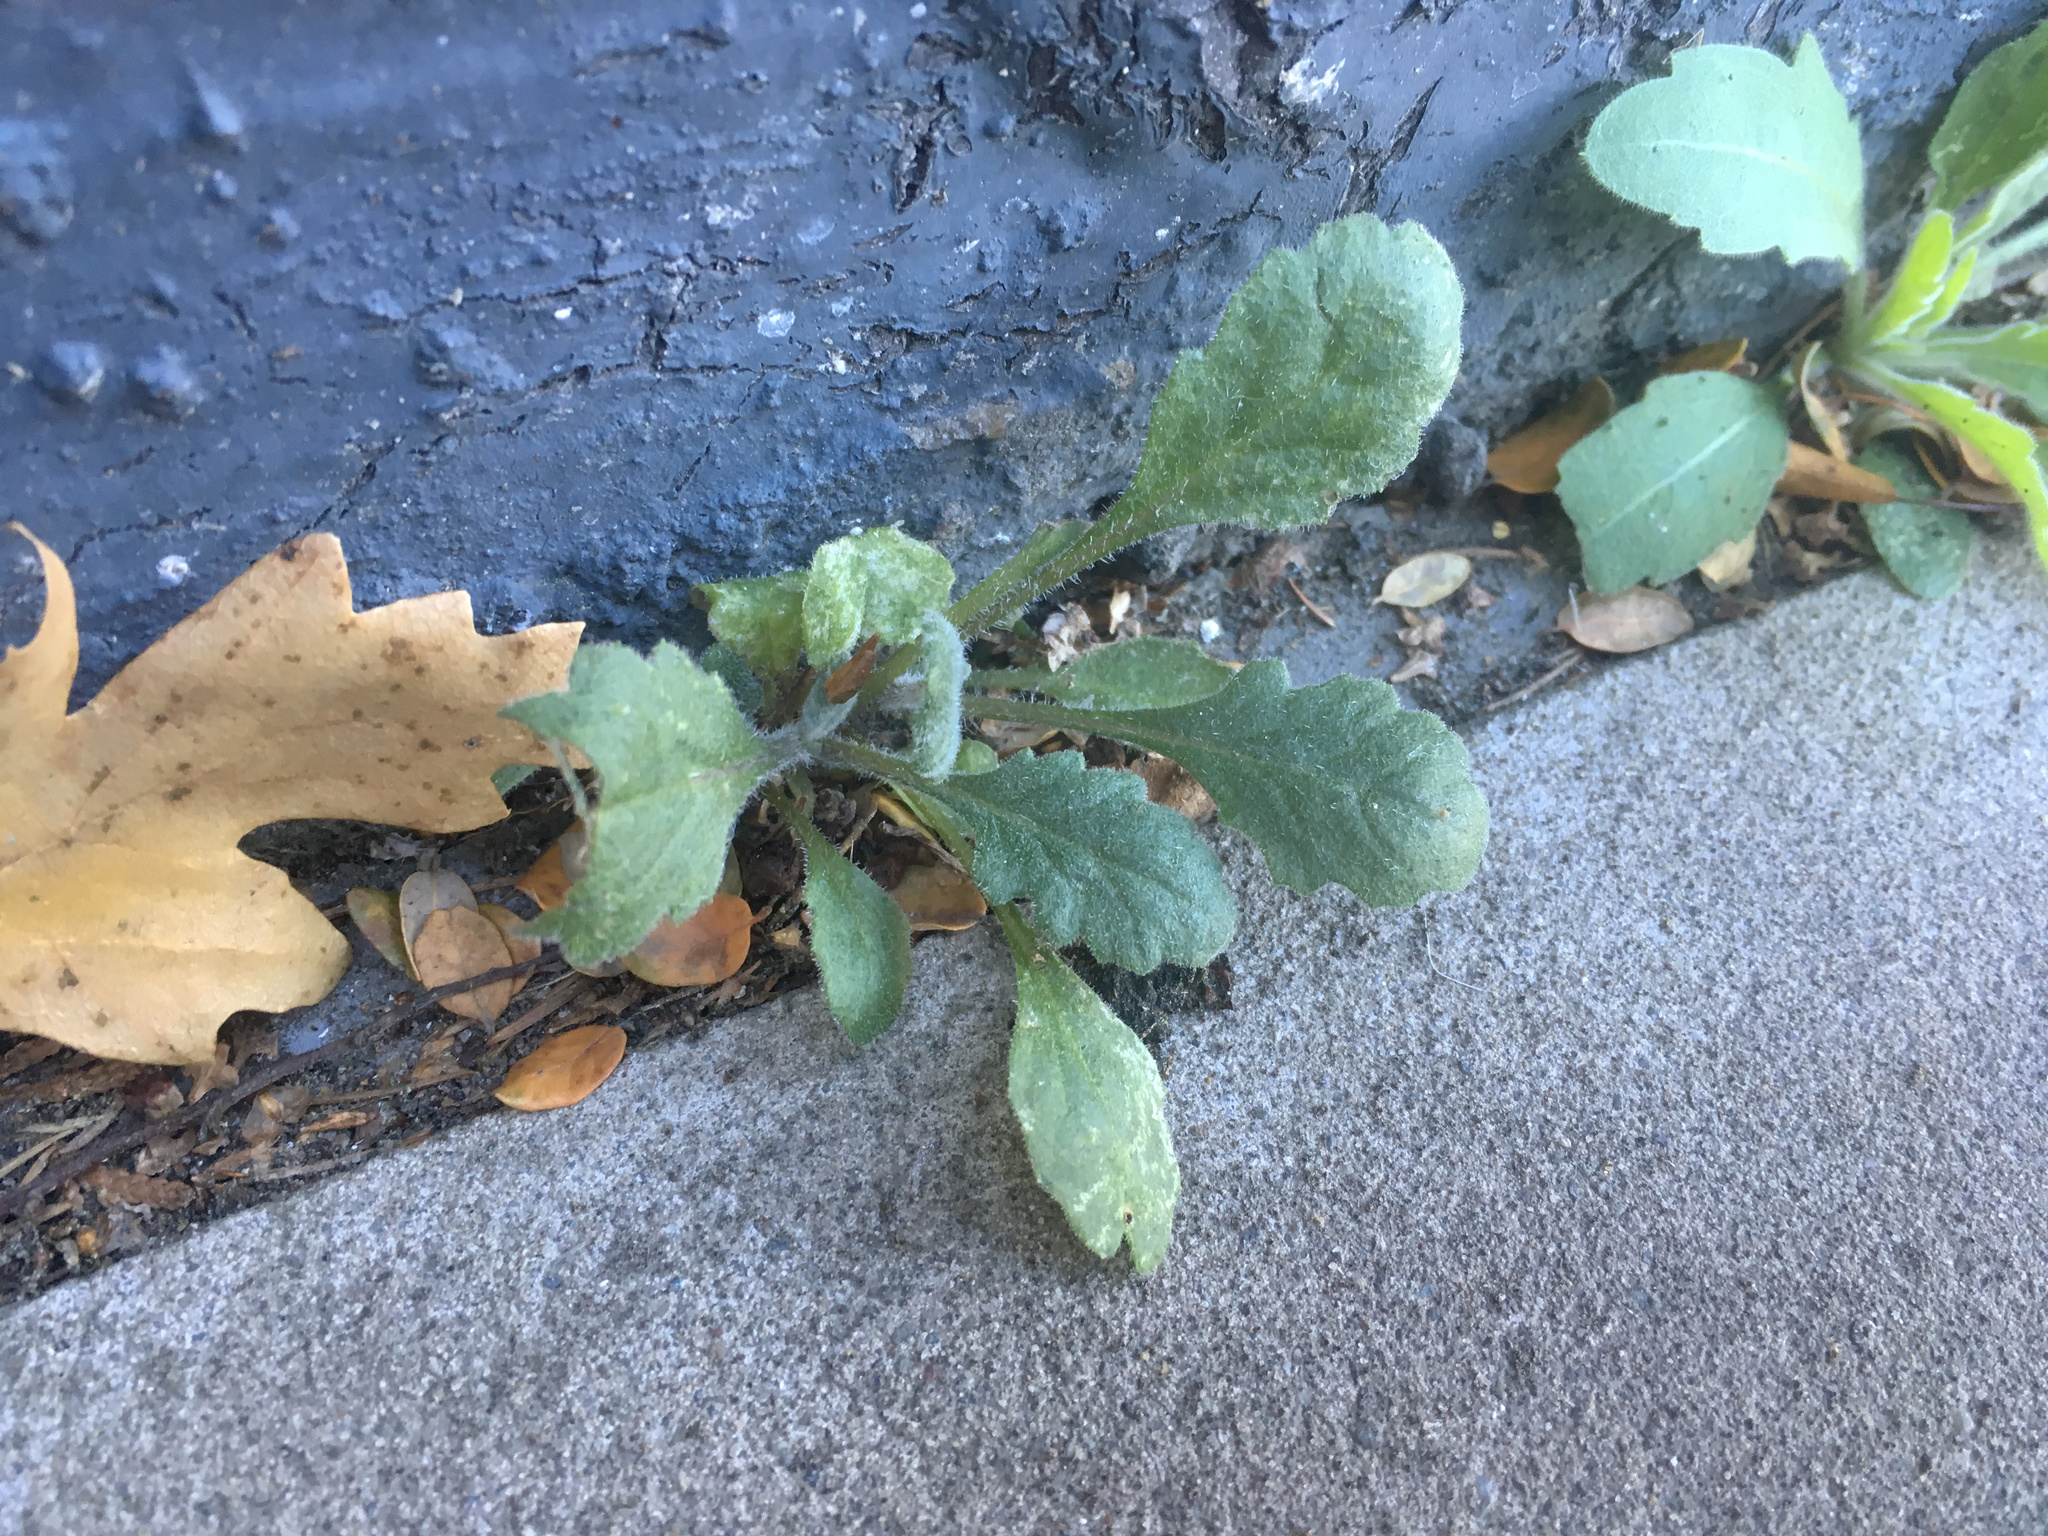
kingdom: Plantae
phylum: Tracheophyta
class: Magnoliopsida
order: Asterales
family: Asteraceae
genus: Senecio
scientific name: Senecio glomeratus
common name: Cutleaf burnweed
